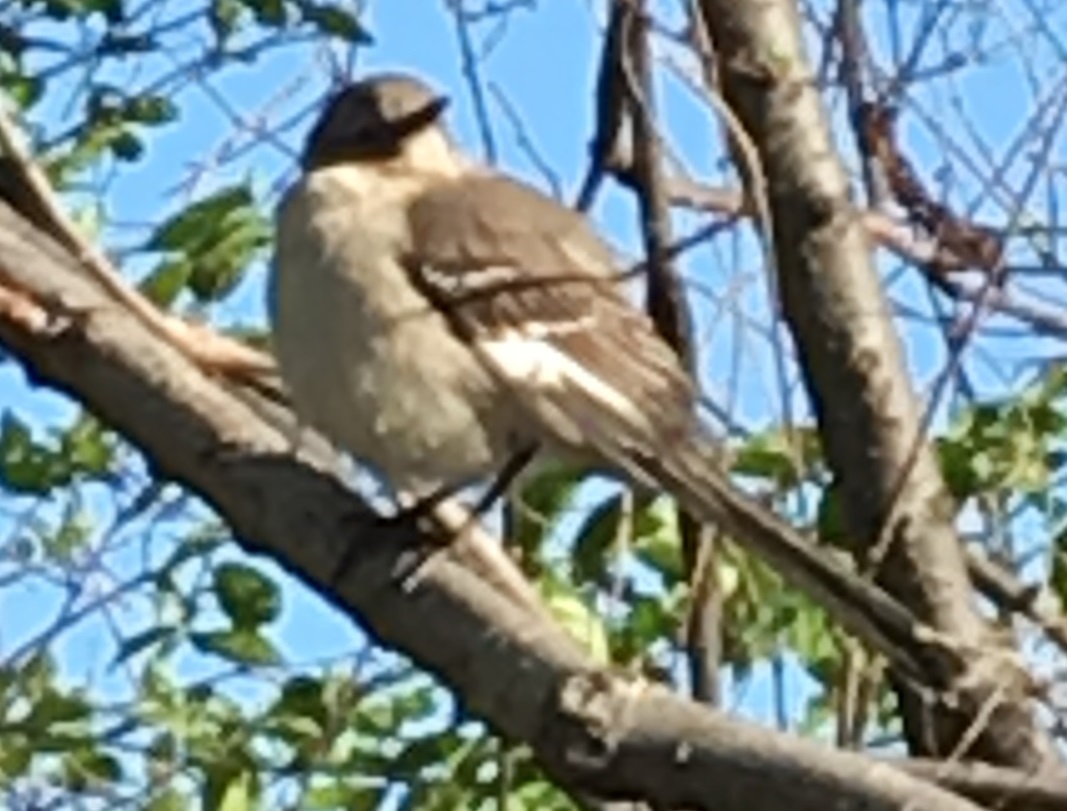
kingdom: Animalia
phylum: Chordata
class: Aves
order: Passeriformes
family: Mimidae
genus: Mimus
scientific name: Mimus polyglottos
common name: Northern mockingbird
